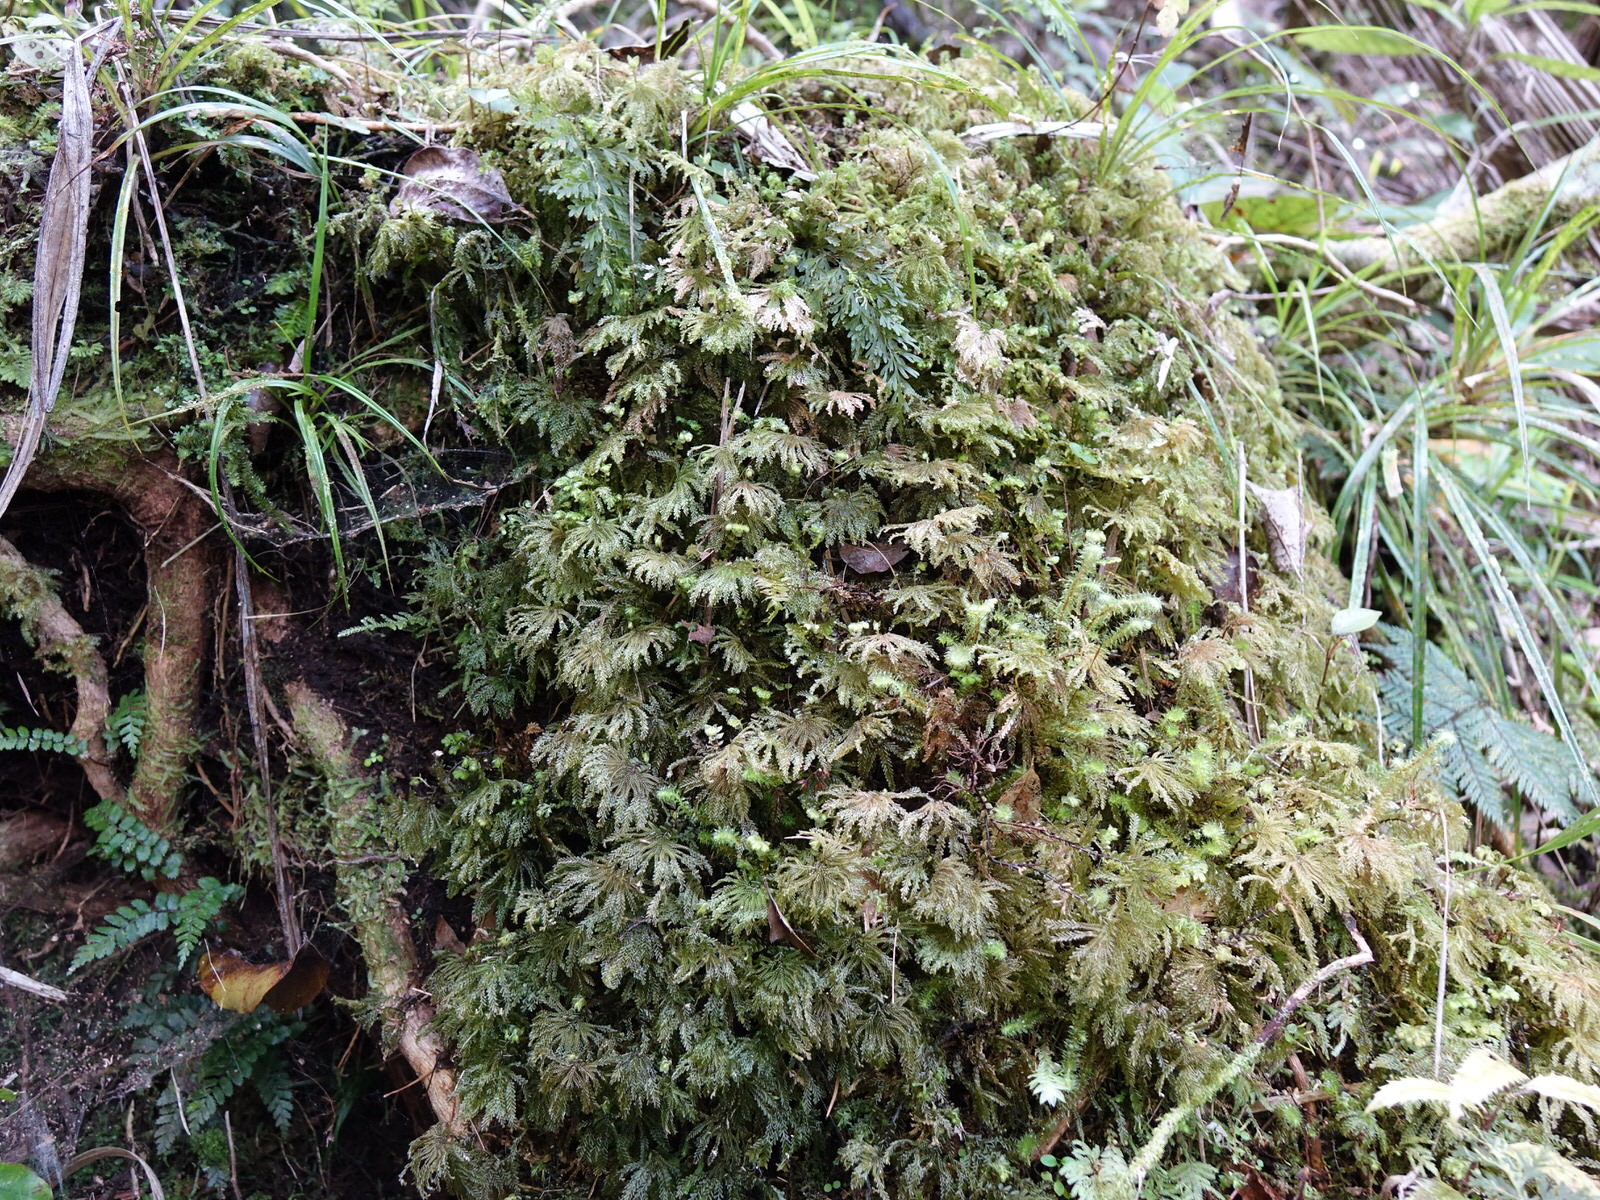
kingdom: Plantae
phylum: Marchantiophyta
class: Jungermanniopsida
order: Jungermanniales
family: Plagiochilaceae
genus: Plagiochila
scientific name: Plagiochila gigantea
